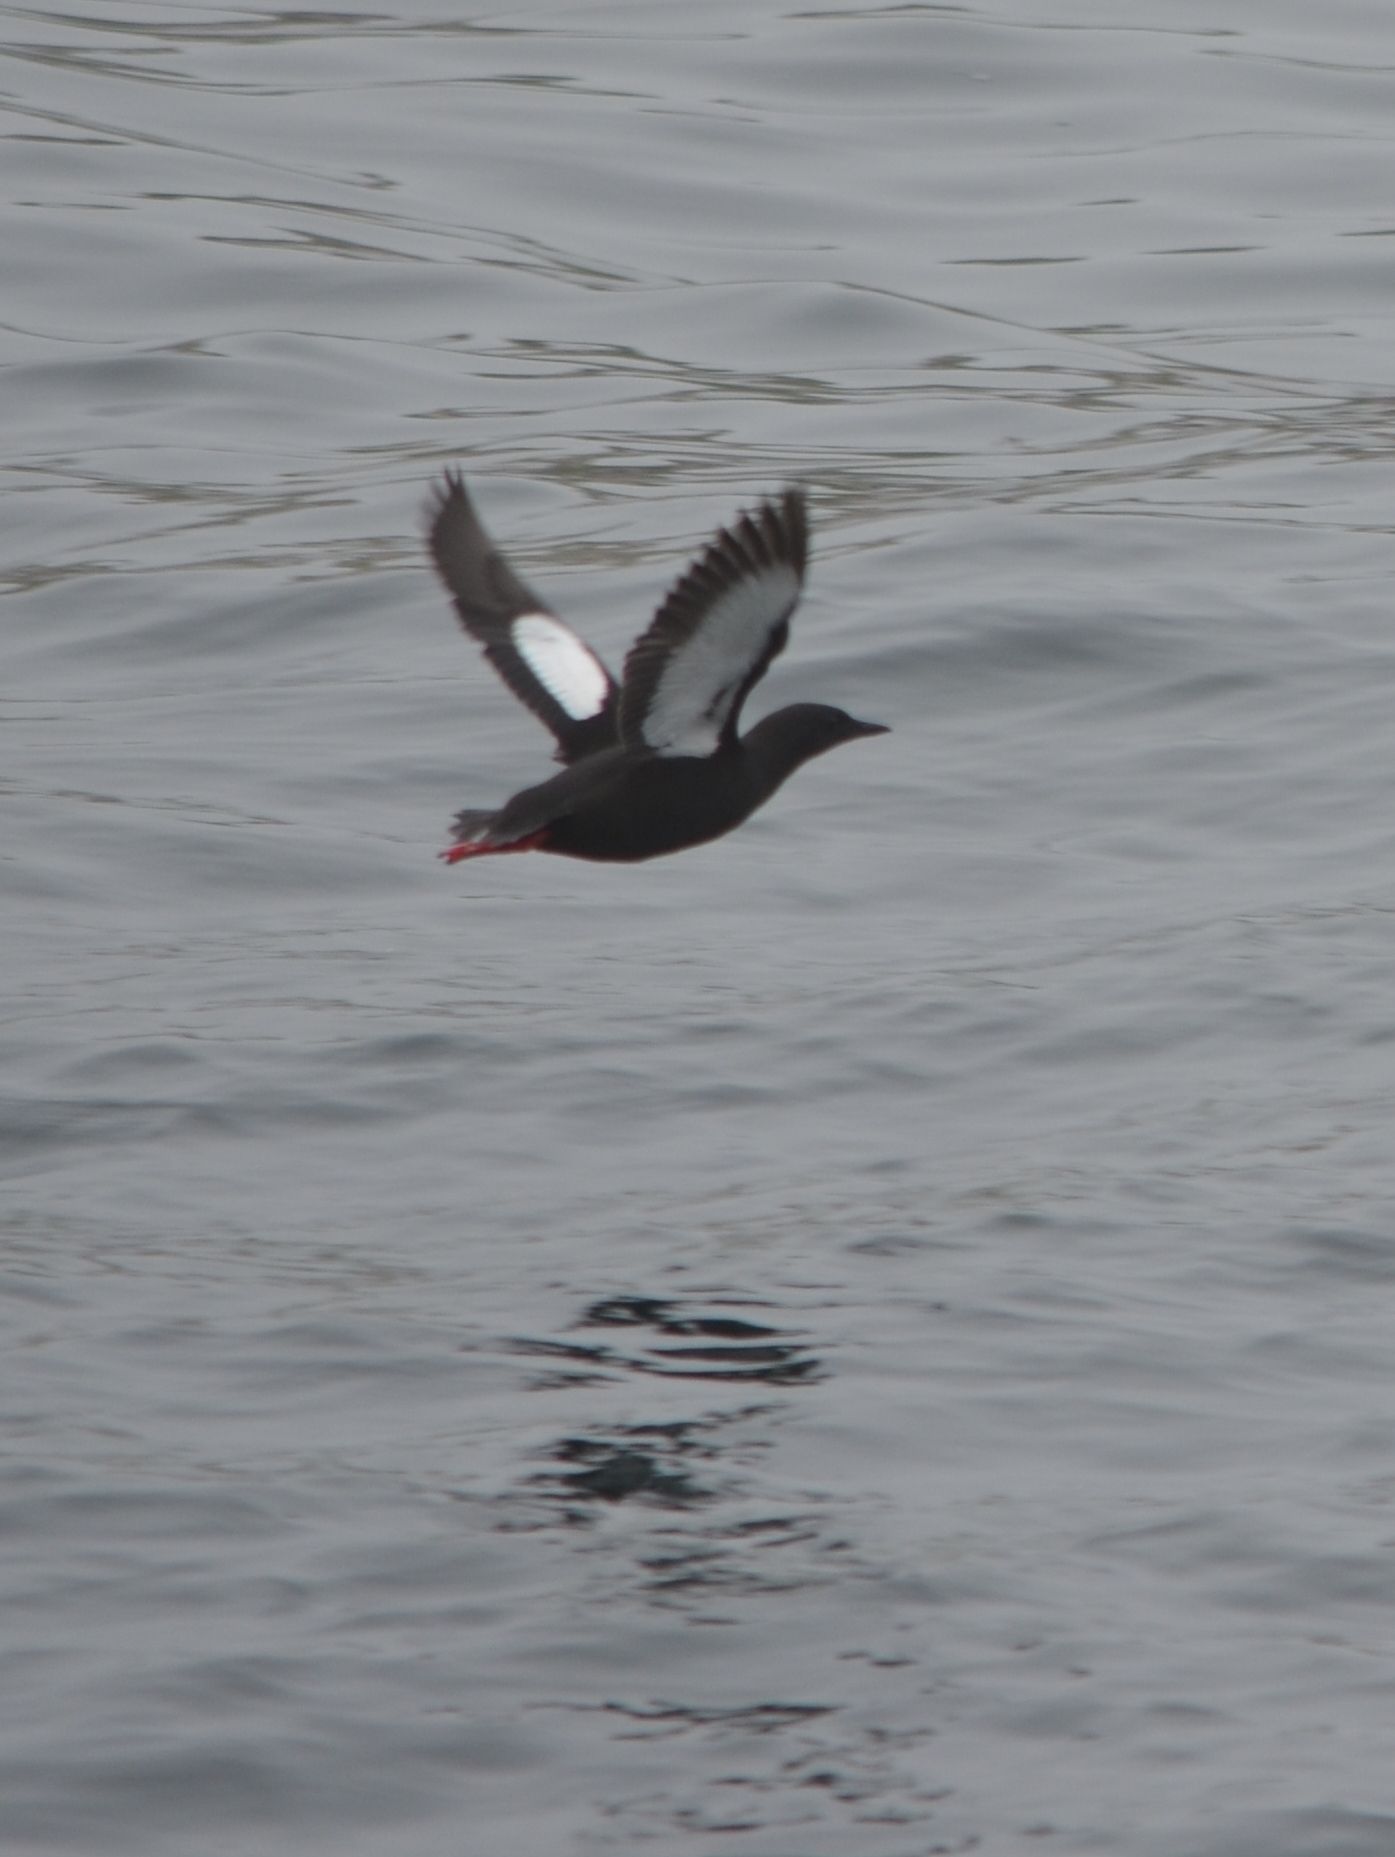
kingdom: Animalia
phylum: Chordata
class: Aves
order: Charadriiformes
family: Alcidae
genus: Cepphus
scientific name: Cepphus grylle
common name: Black guillemot
